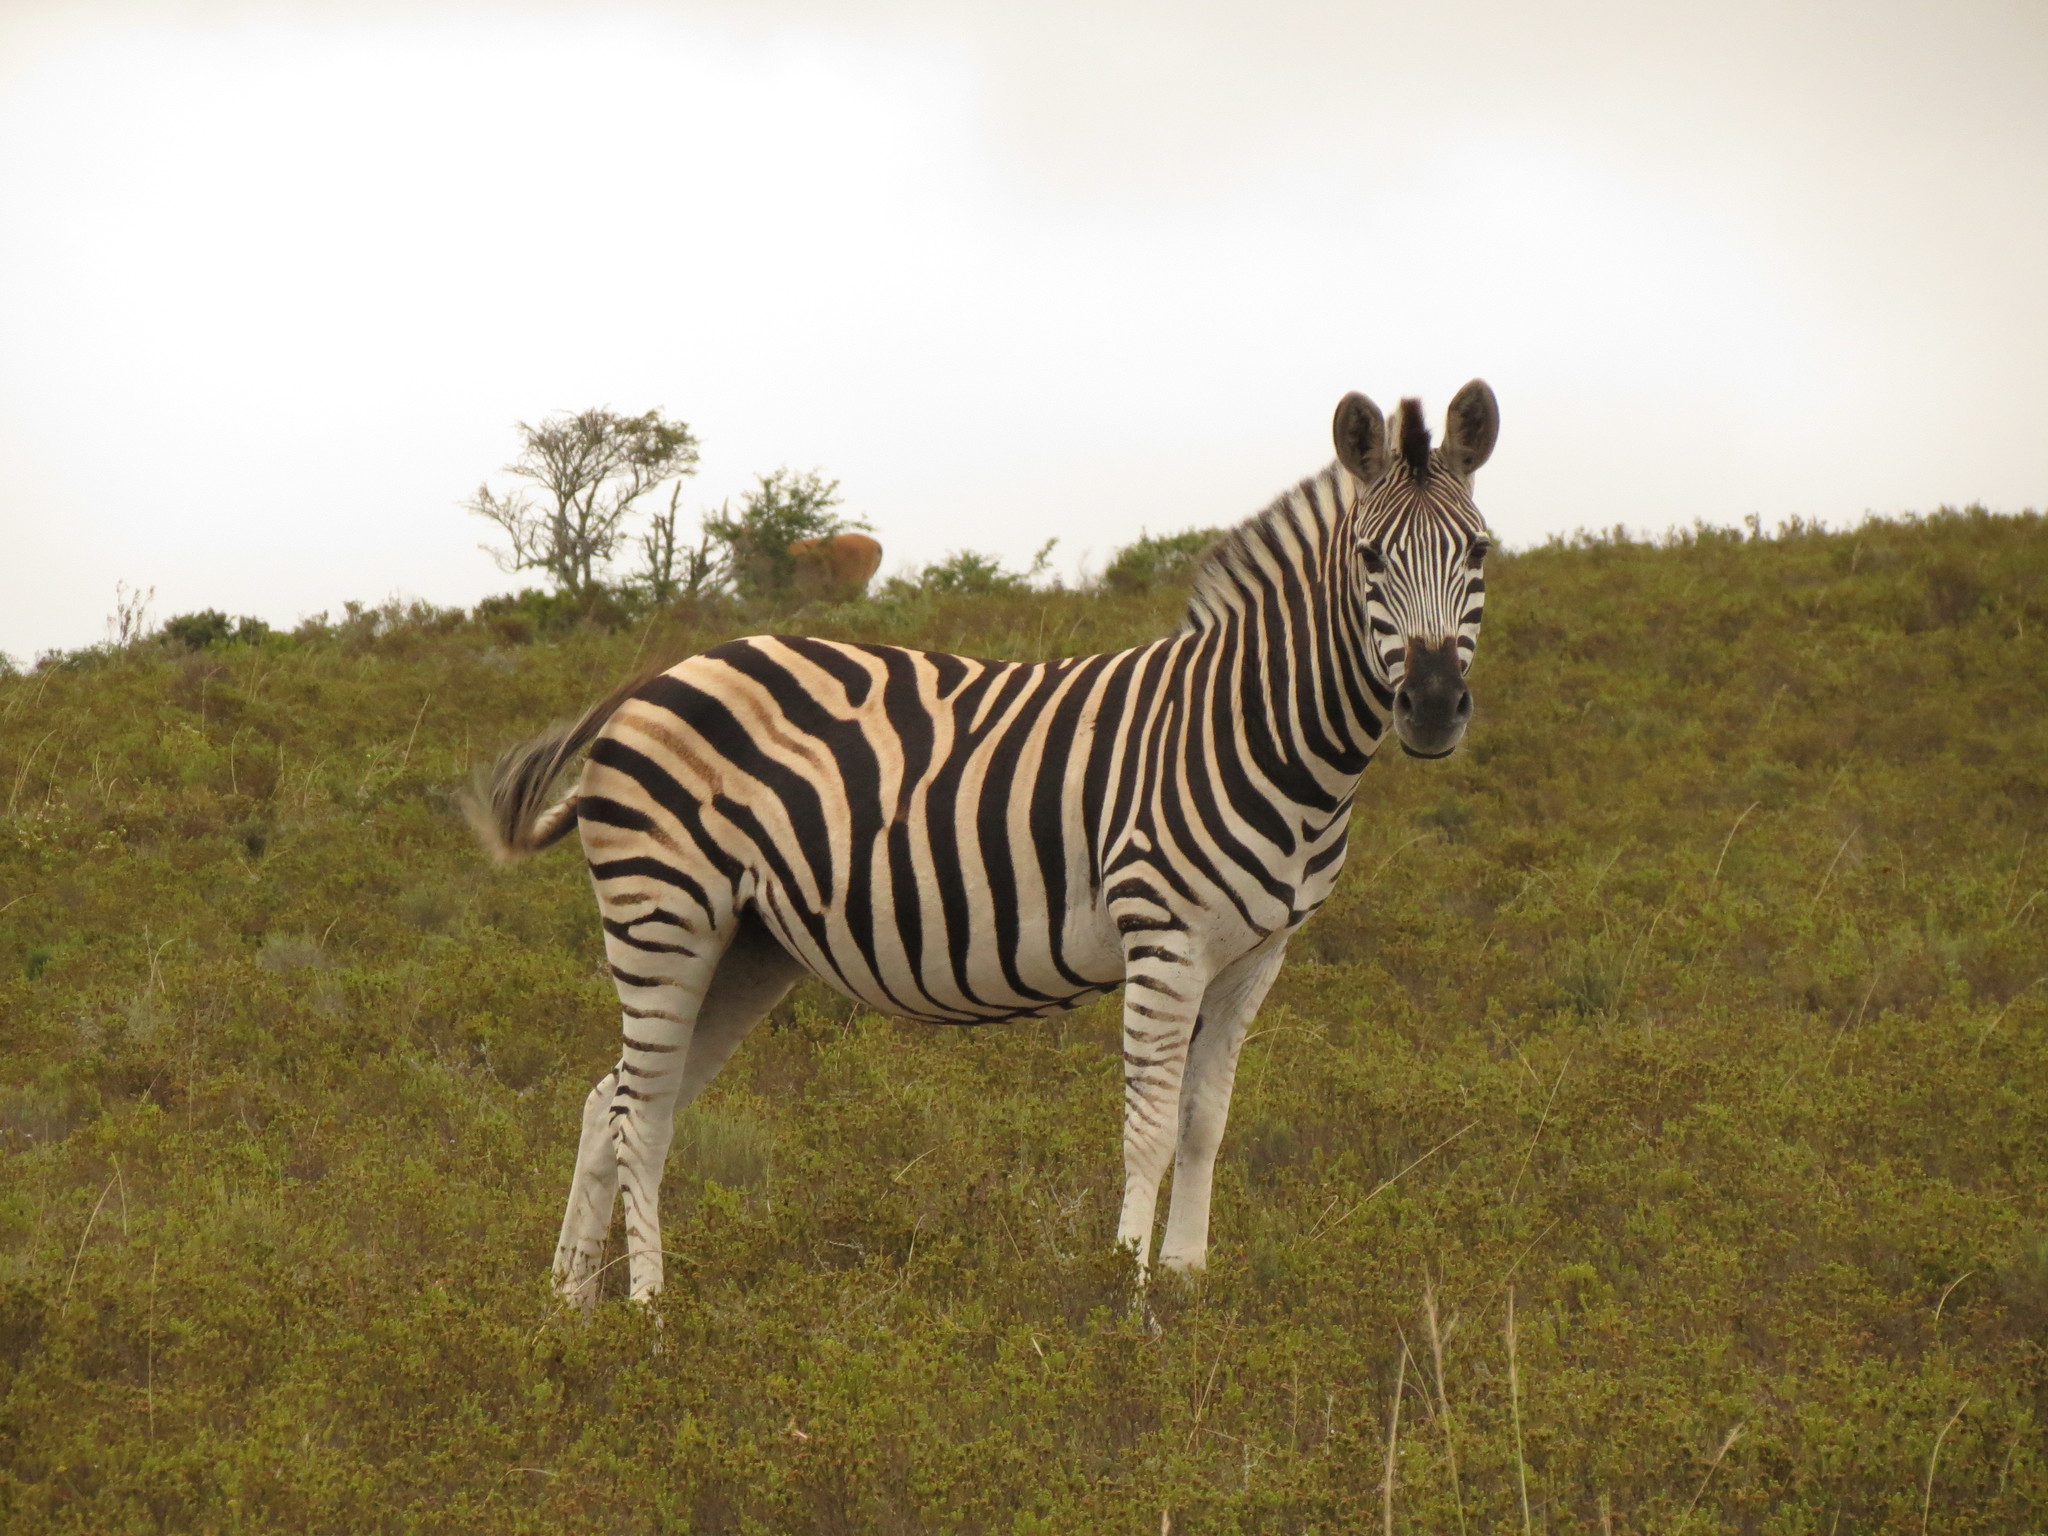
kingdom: Animalia
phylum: Chordata
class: Mammalia
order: Perissodactyla
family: Equidae
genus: Equus
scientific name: Equus quagga
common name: Plains zebra
